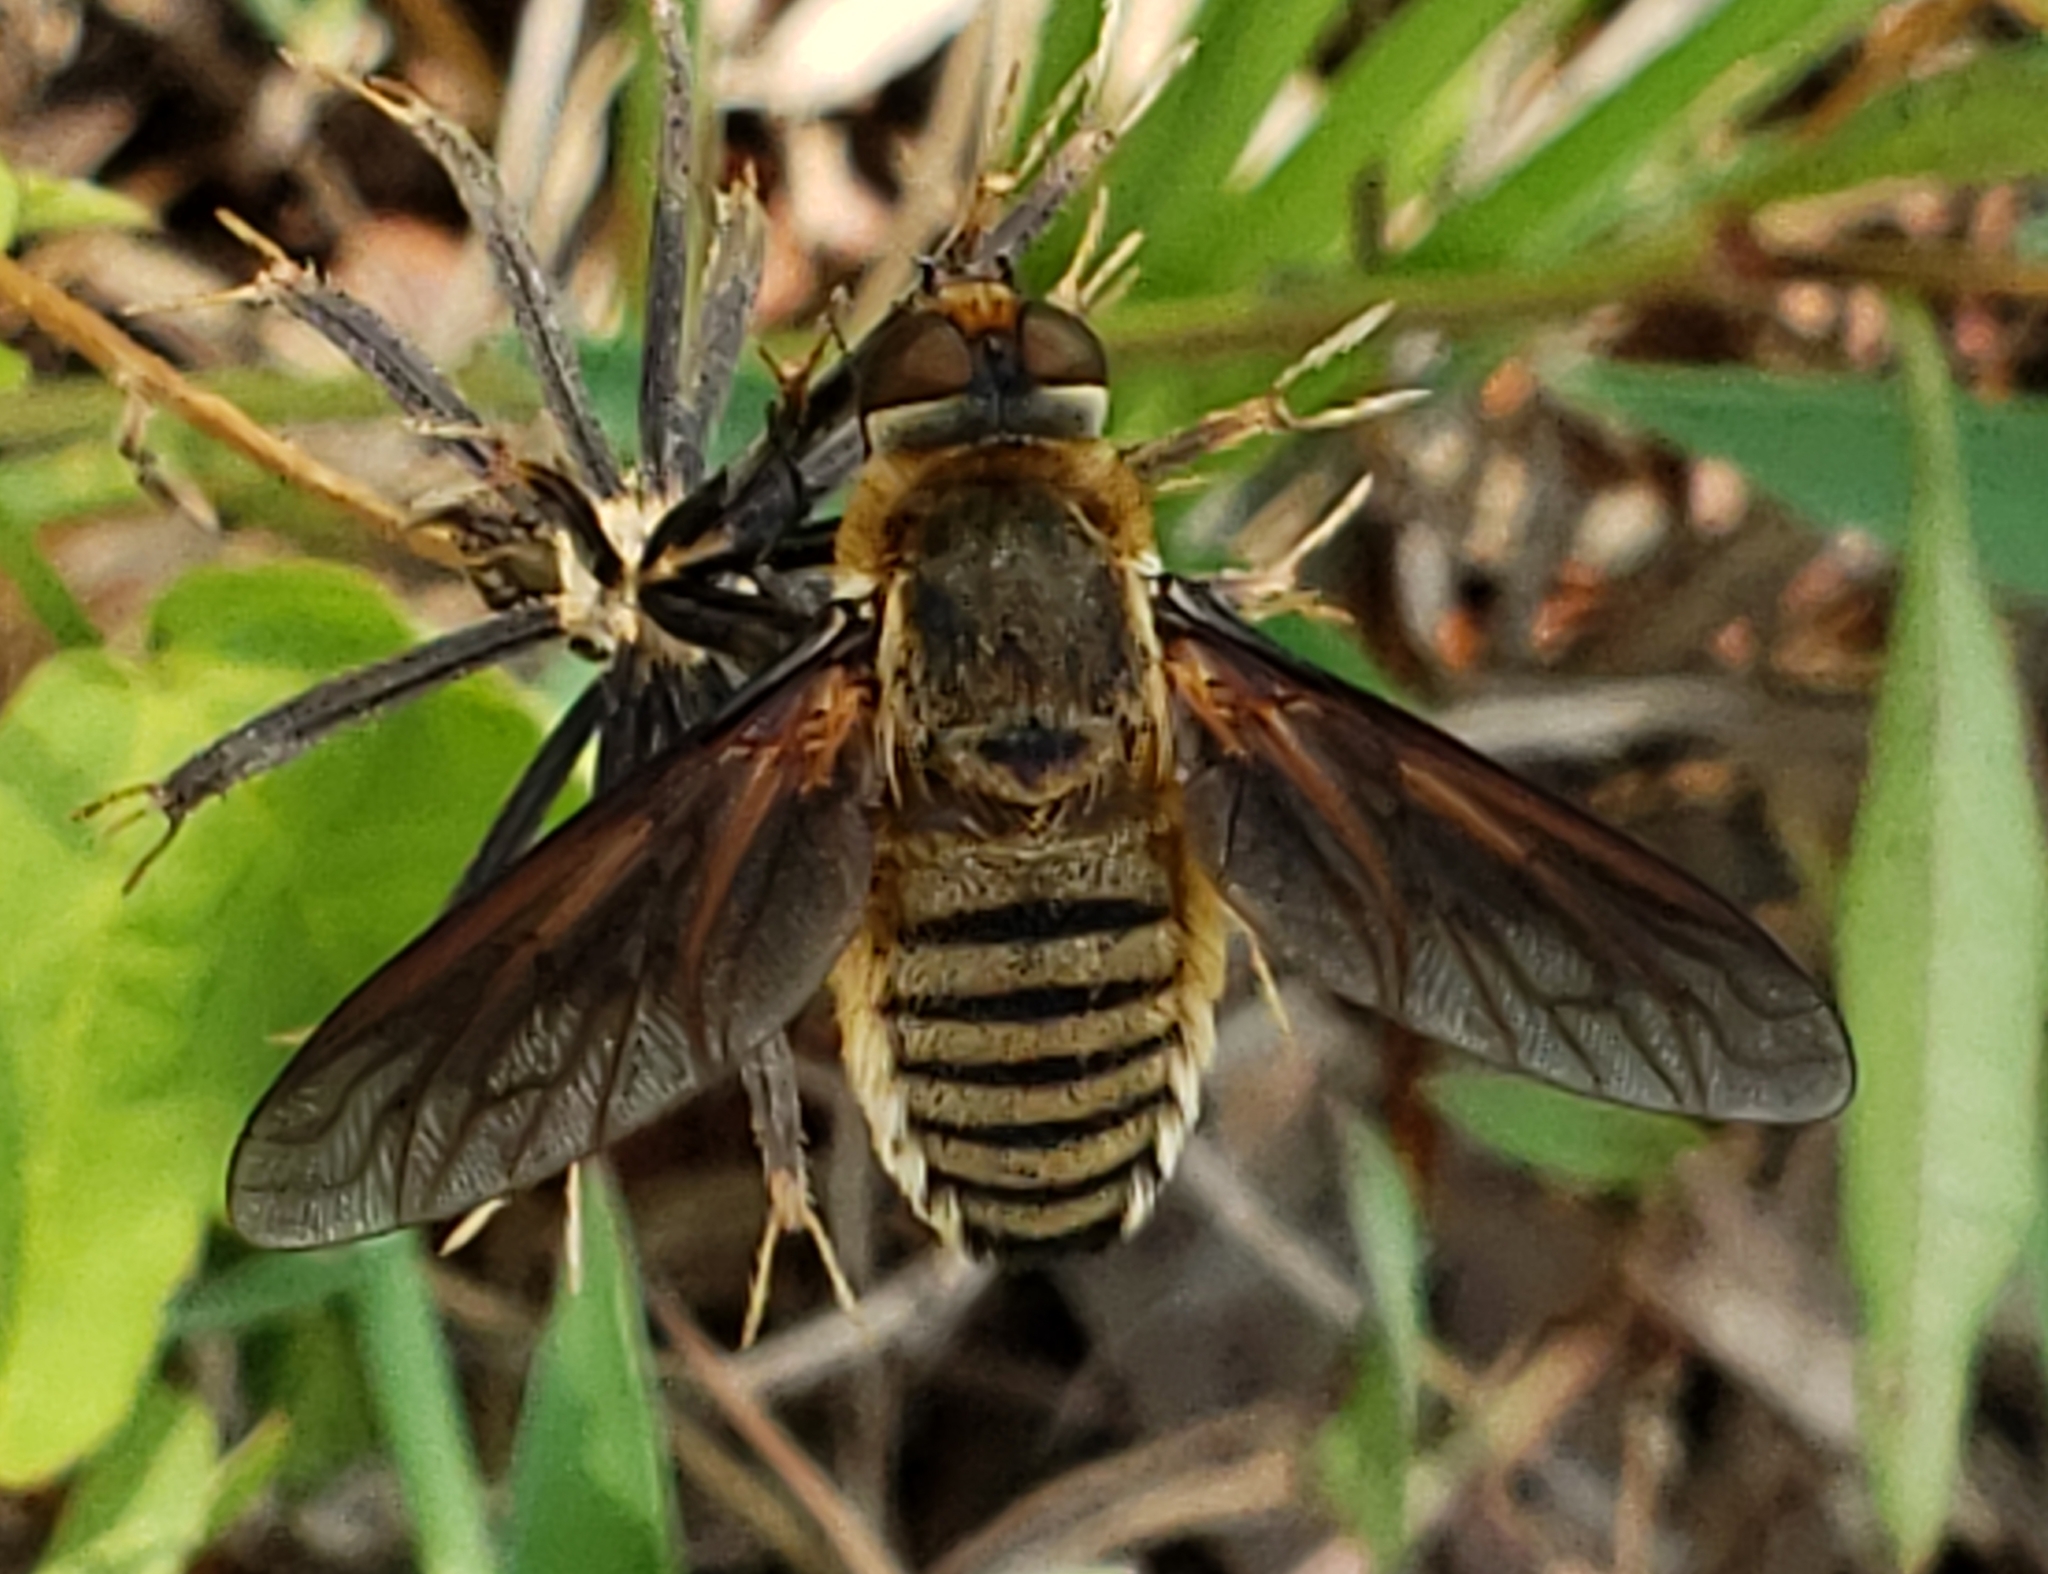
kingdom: Animalia
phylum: Arthropoda
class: Insecta
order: Diptera
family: Bombyliidae
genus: Poecilanthrax
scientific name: Poecilanthrax lucifer
